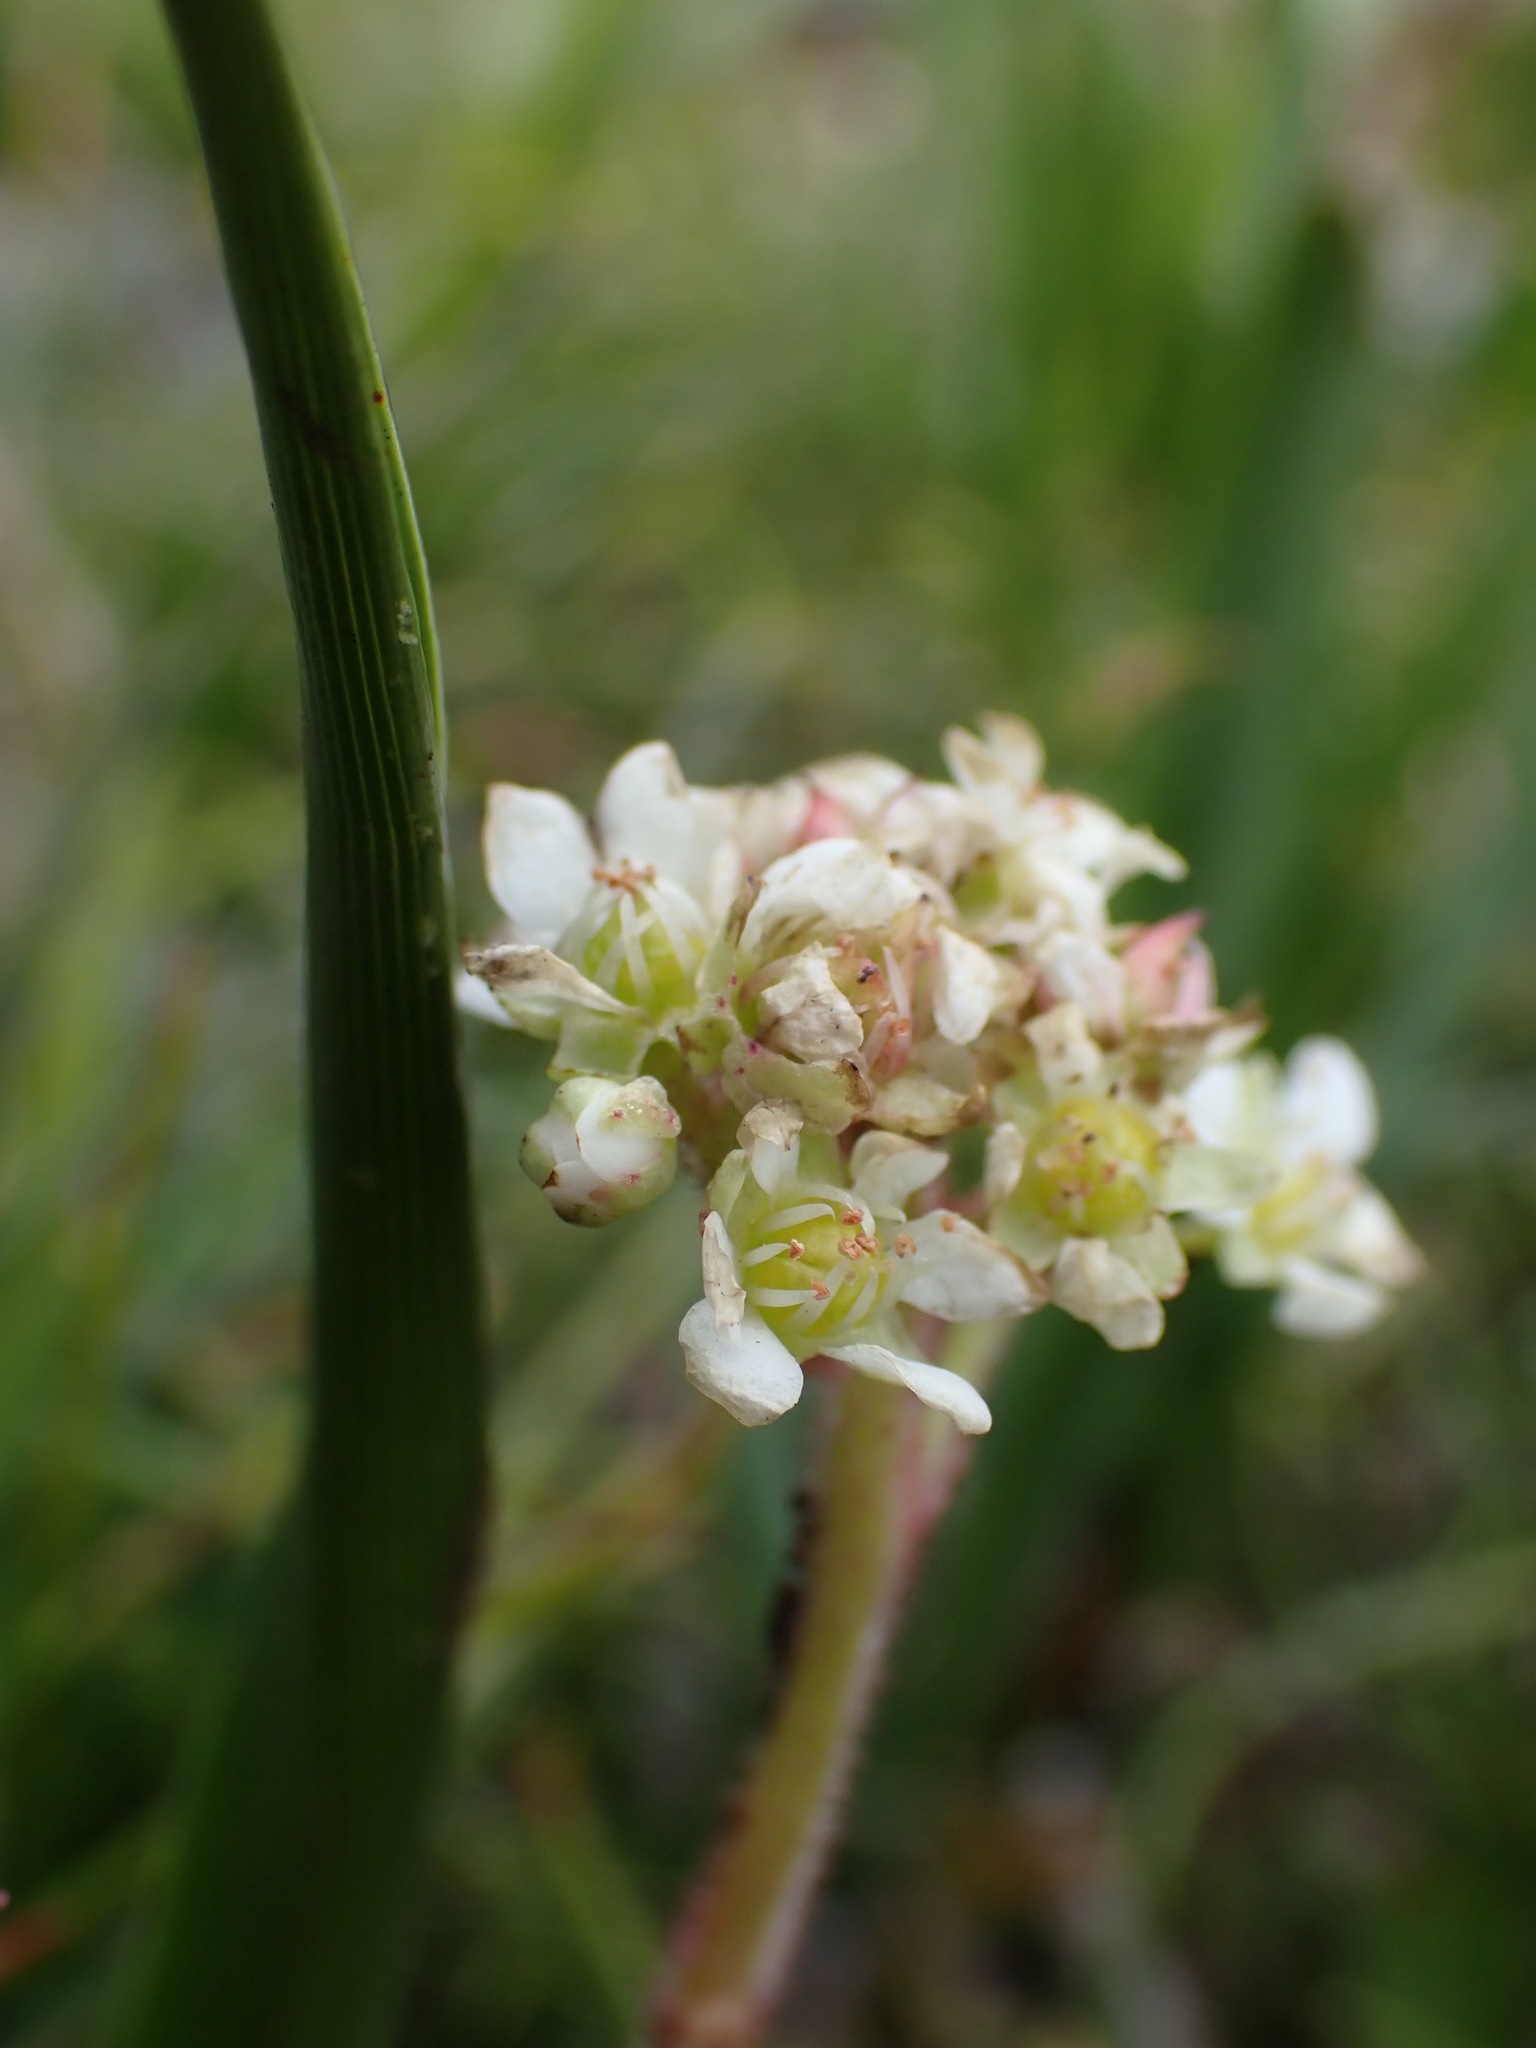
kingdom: Plantae
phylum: Tracheophyta
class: Magnoliopsida
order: Saxifragales
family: Saxifragaceae
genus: Micranthes
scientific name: Micranthes integrifolia
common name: Wholeleaf saxifrage
